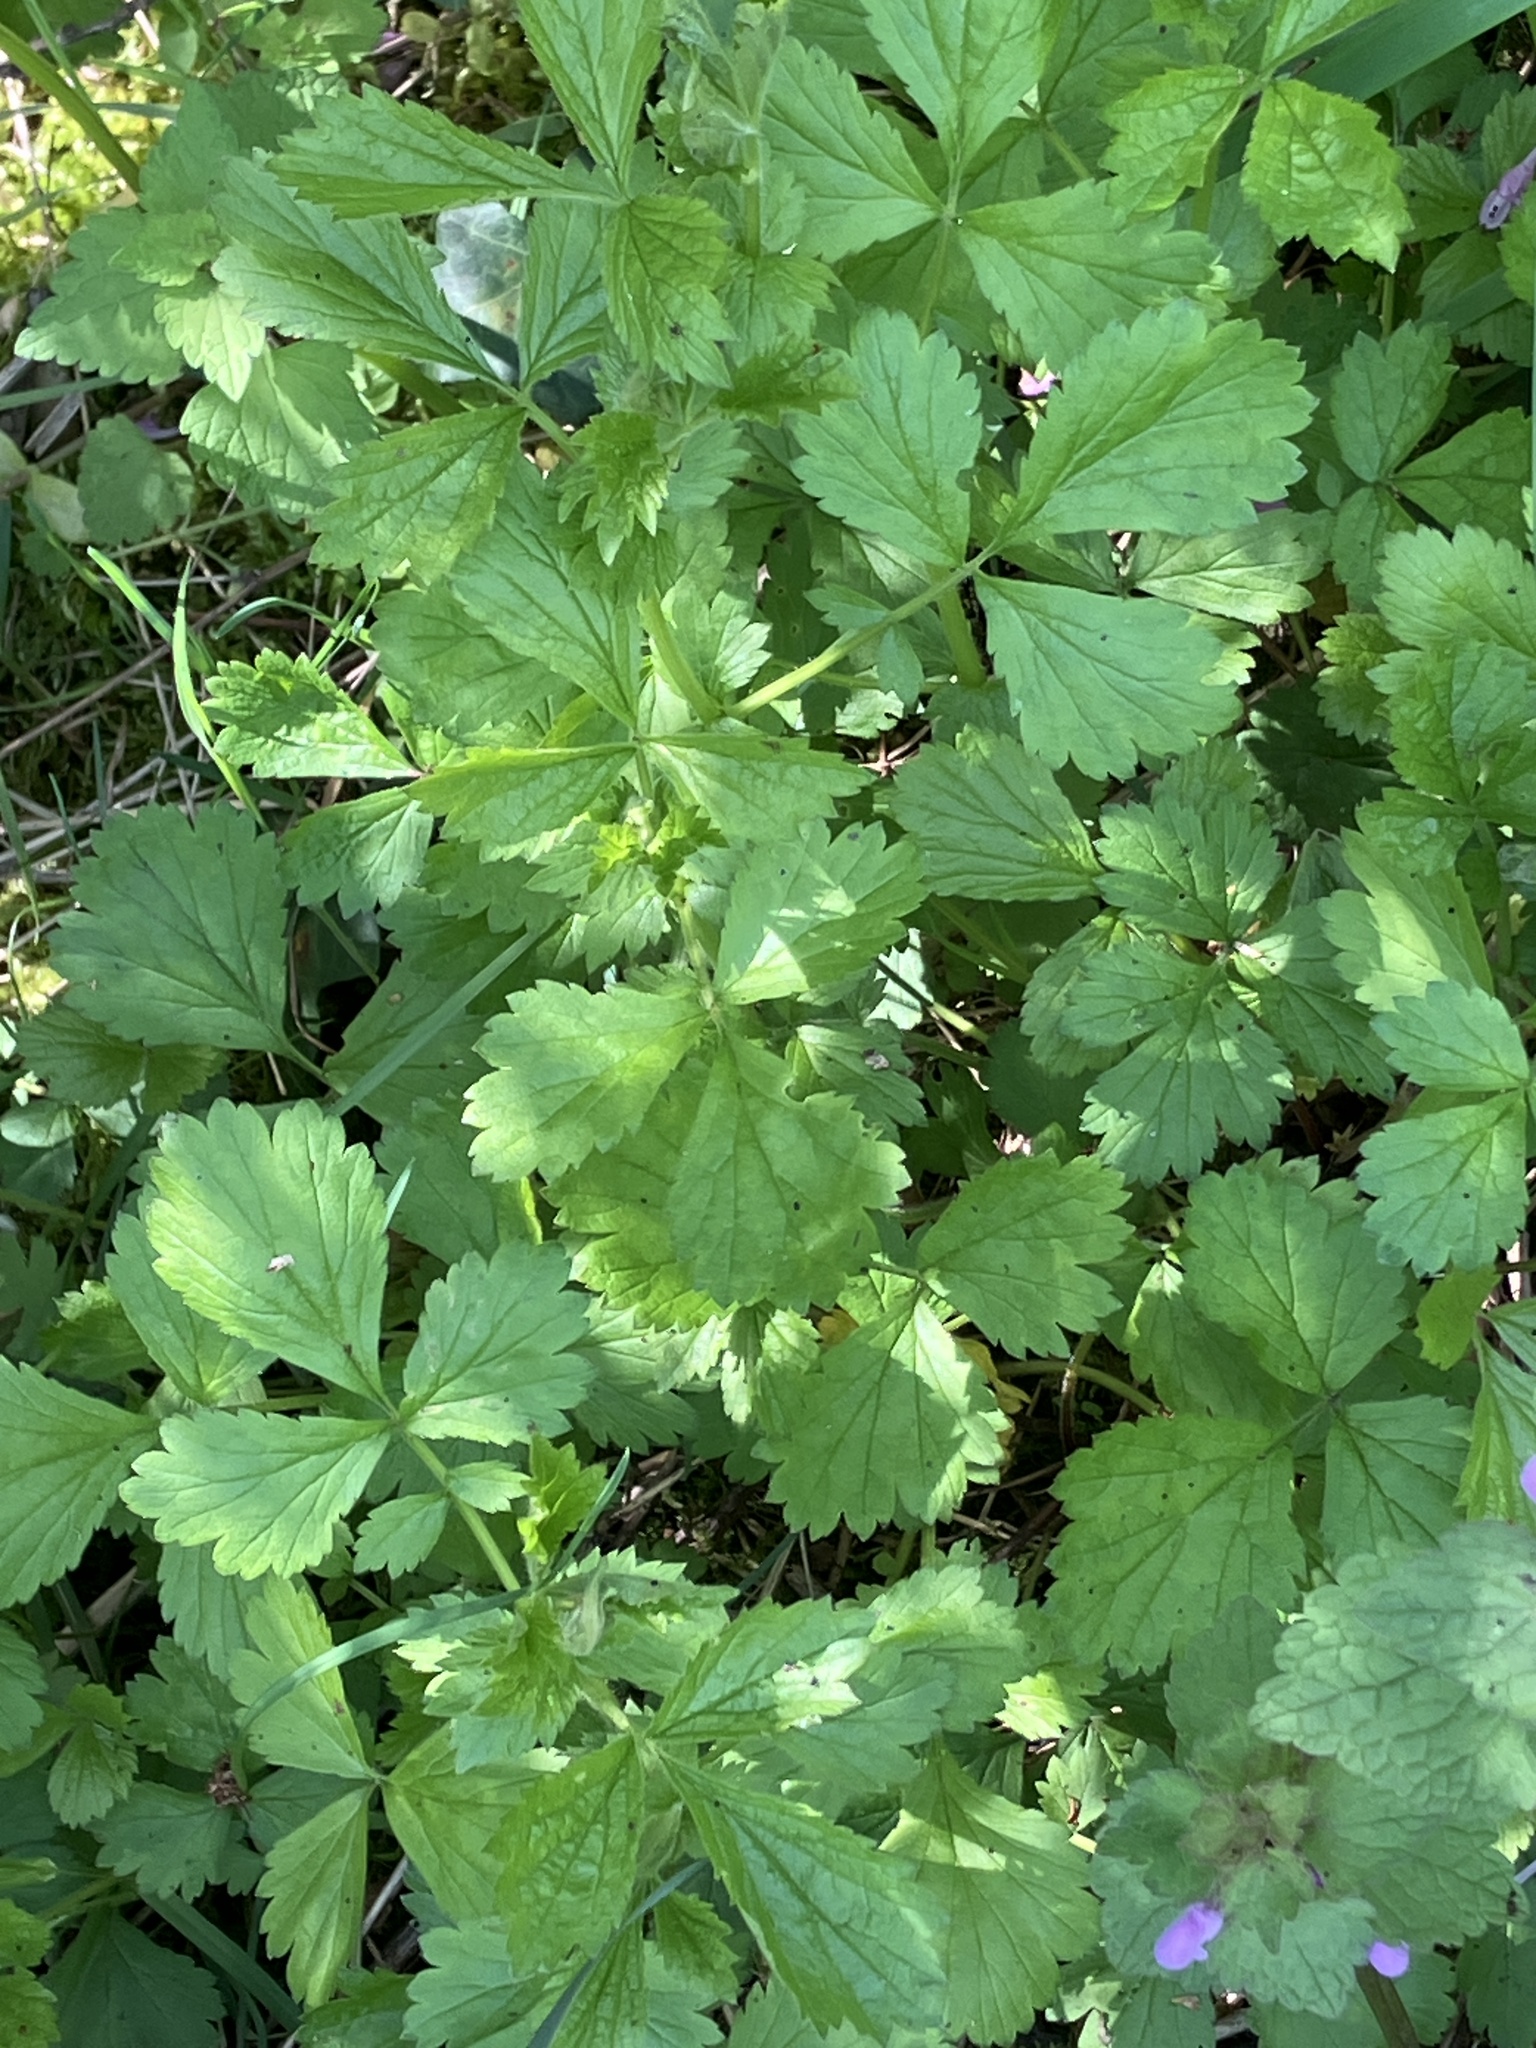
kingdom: Plantae
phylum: Tracheophyta
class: Magnoliopsida
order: Rosales
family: Rosaceae
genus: Geum
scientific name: Geum urbanum
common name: Wood avens
